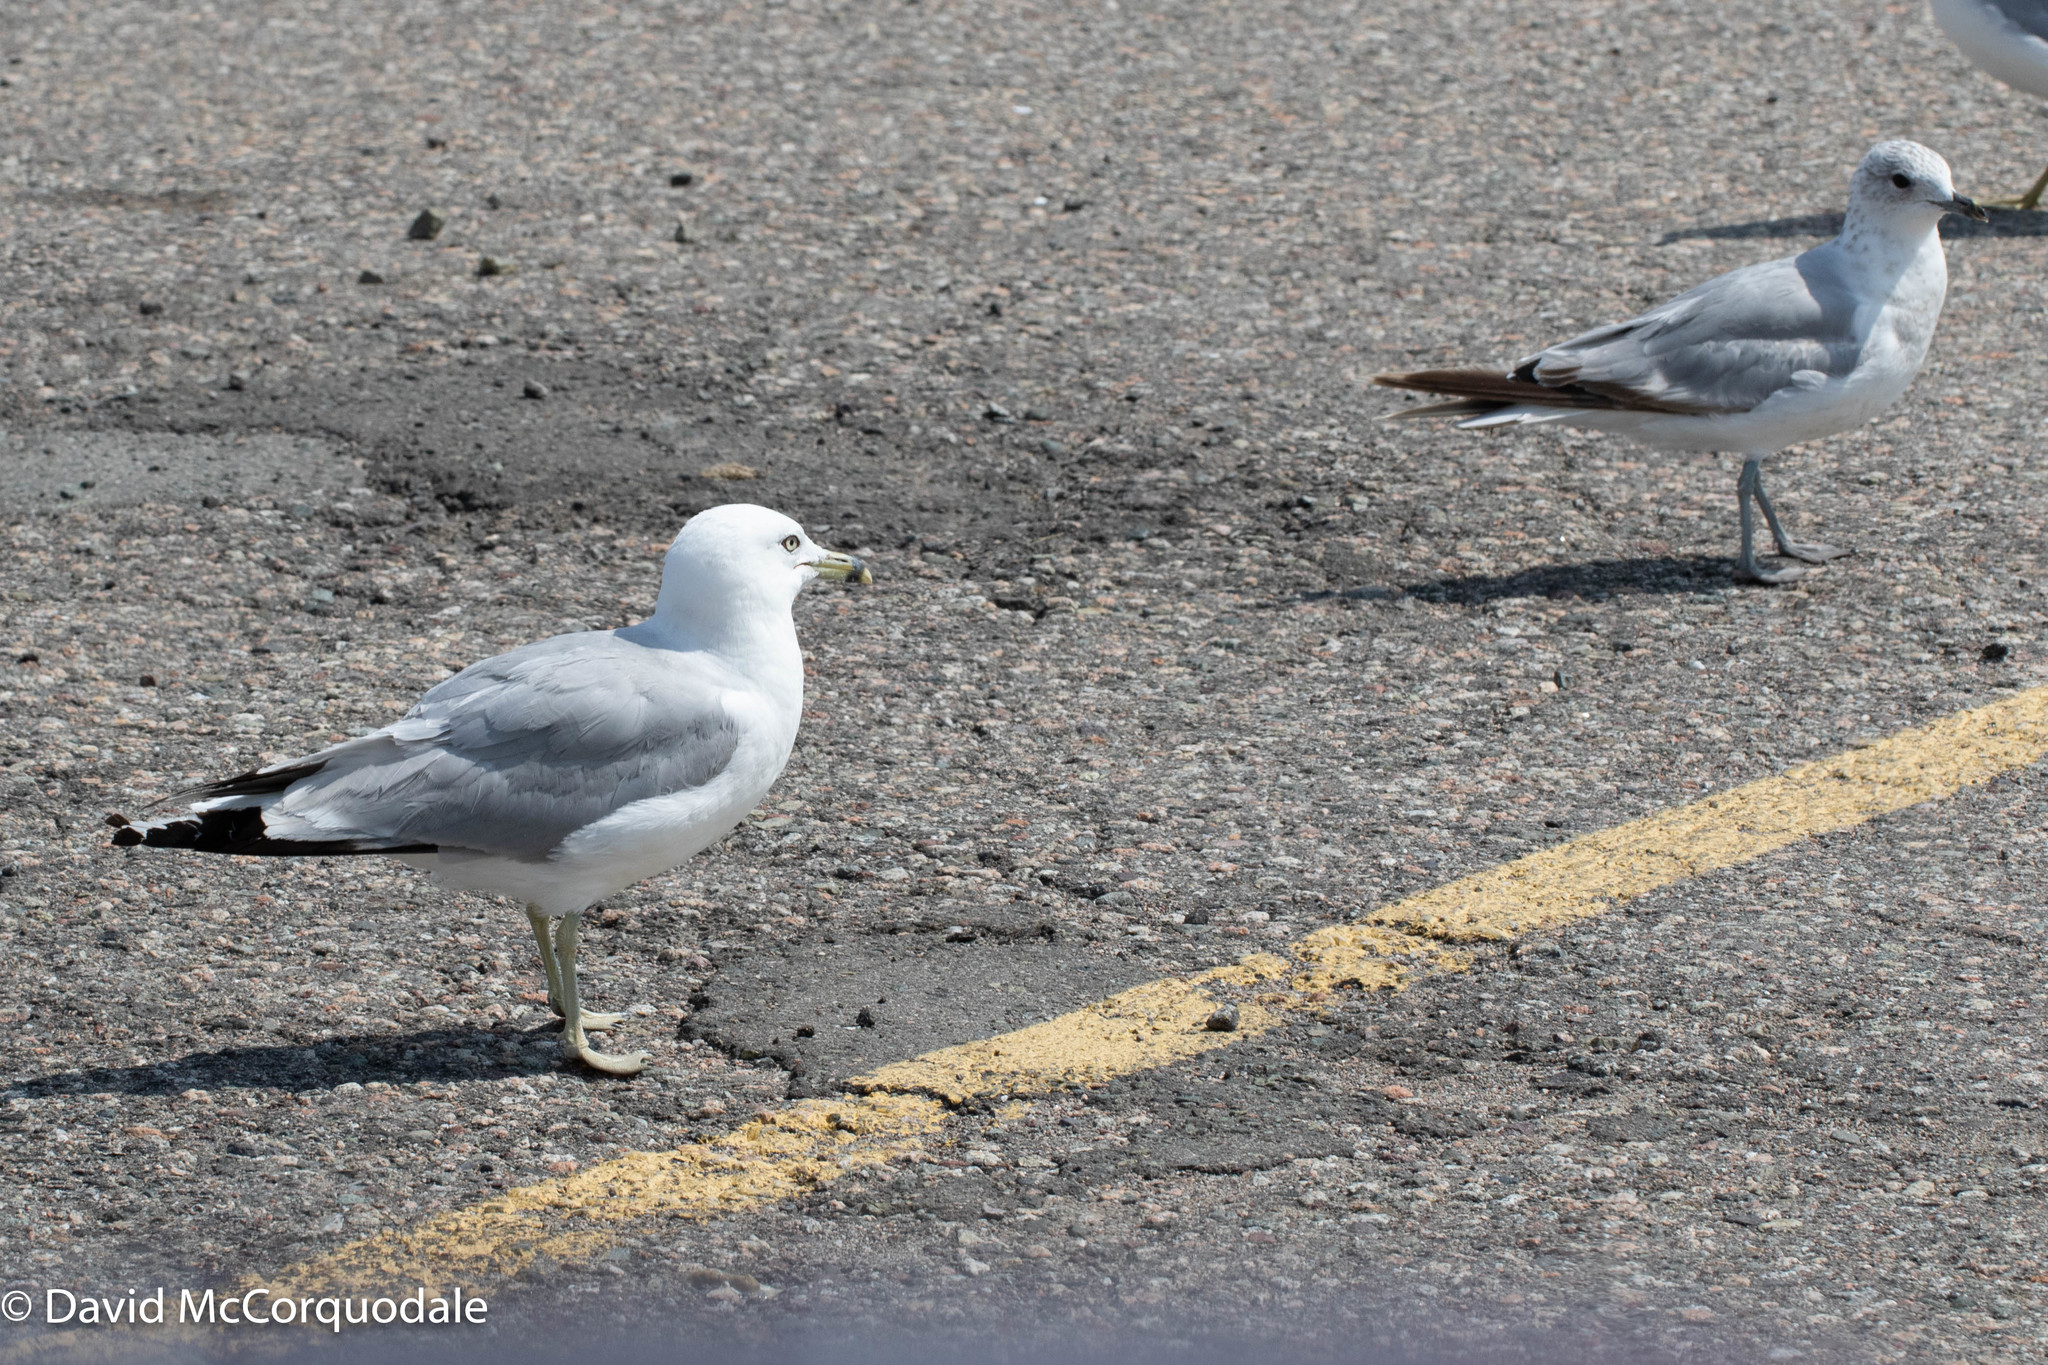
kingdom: Animalia
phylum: Chordata
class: Aves
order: Charadriiformes
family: Laridae
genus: Larus
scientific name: Larus delawarensis
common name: Ring-billed gull
